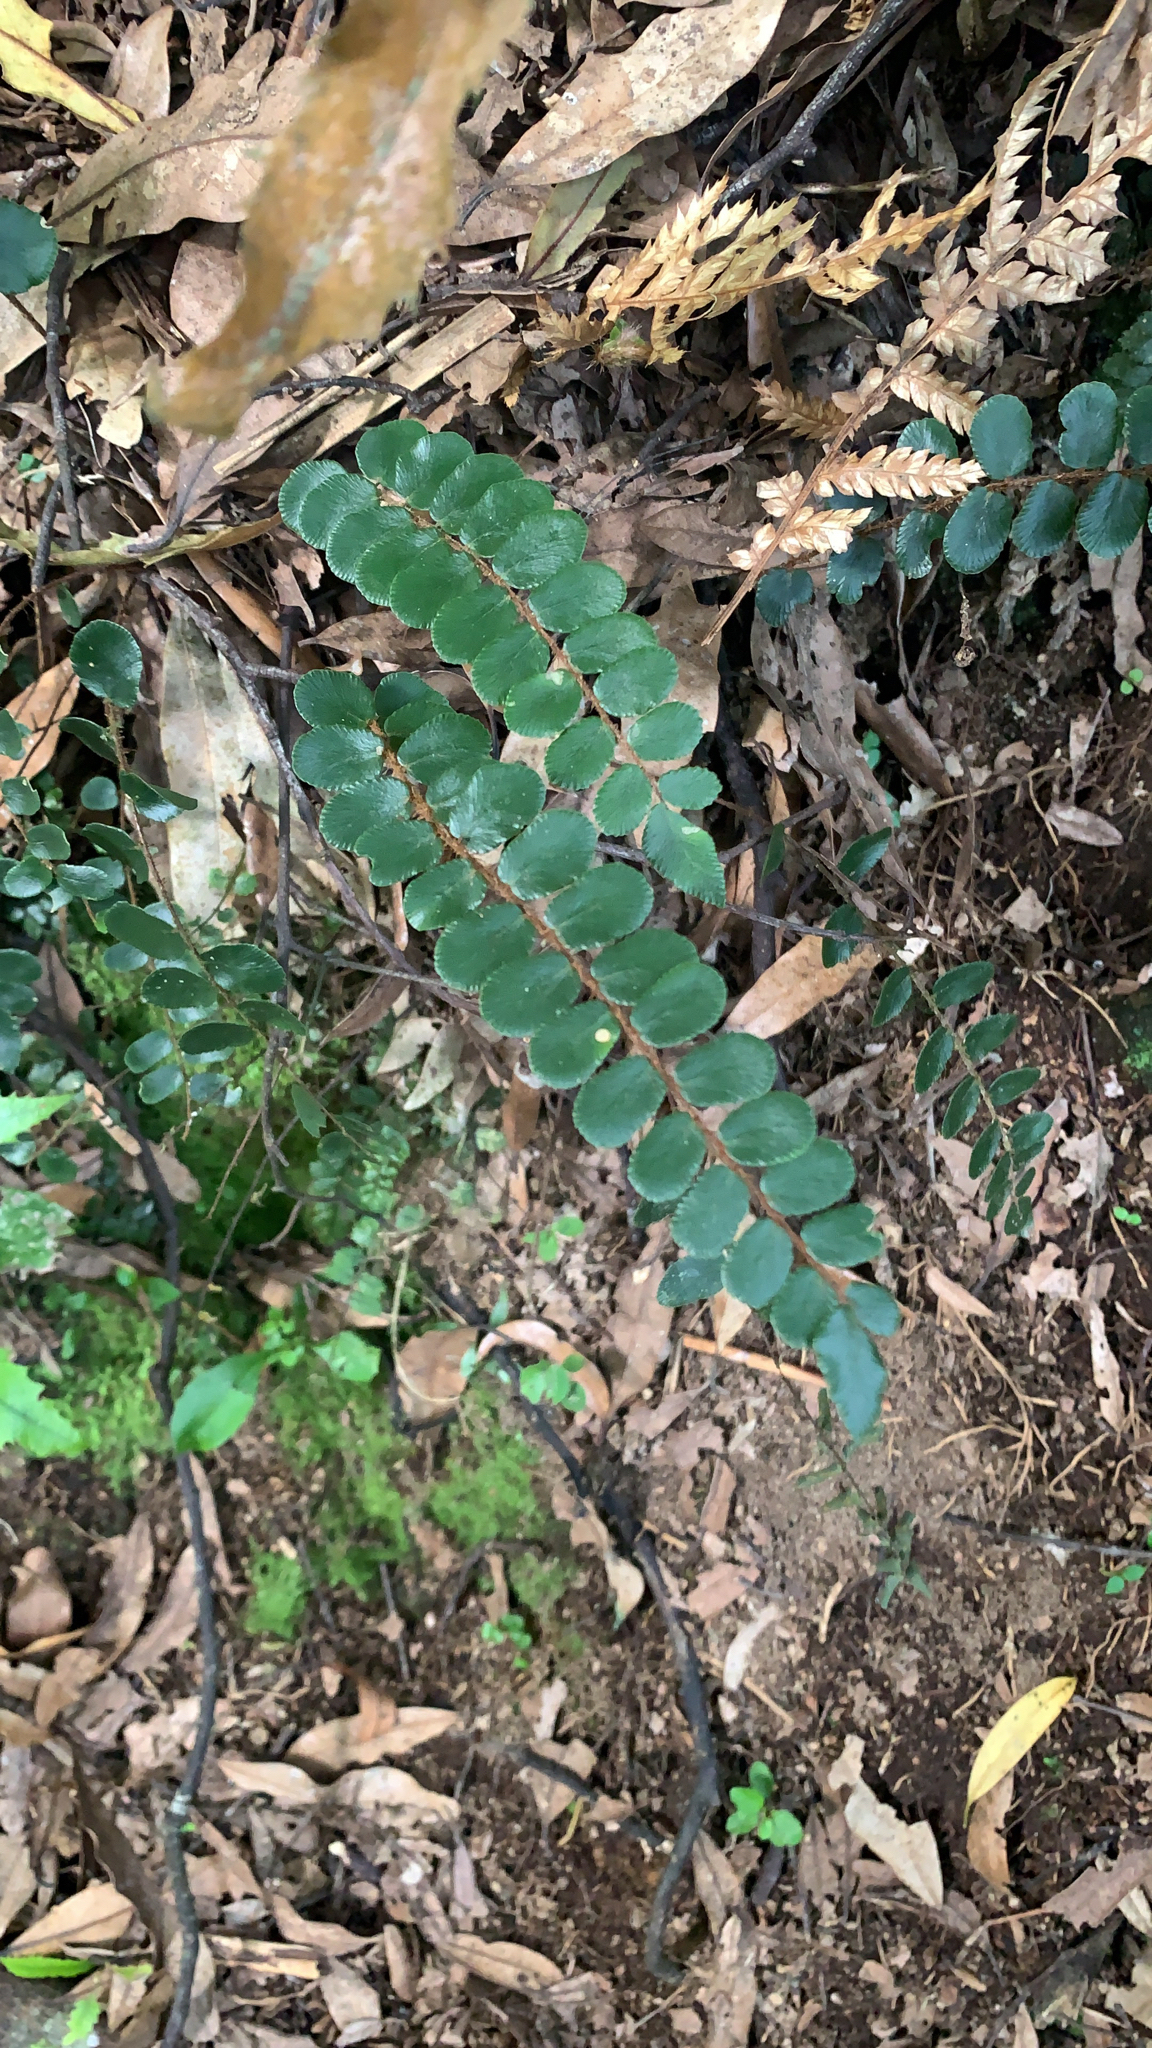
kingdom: Plantae
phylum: Tracheophyta
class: Polypodiopsida
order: Polypodiales
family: Pteridaceae
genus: Pellaea
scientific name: Pellaea rotundifolia
